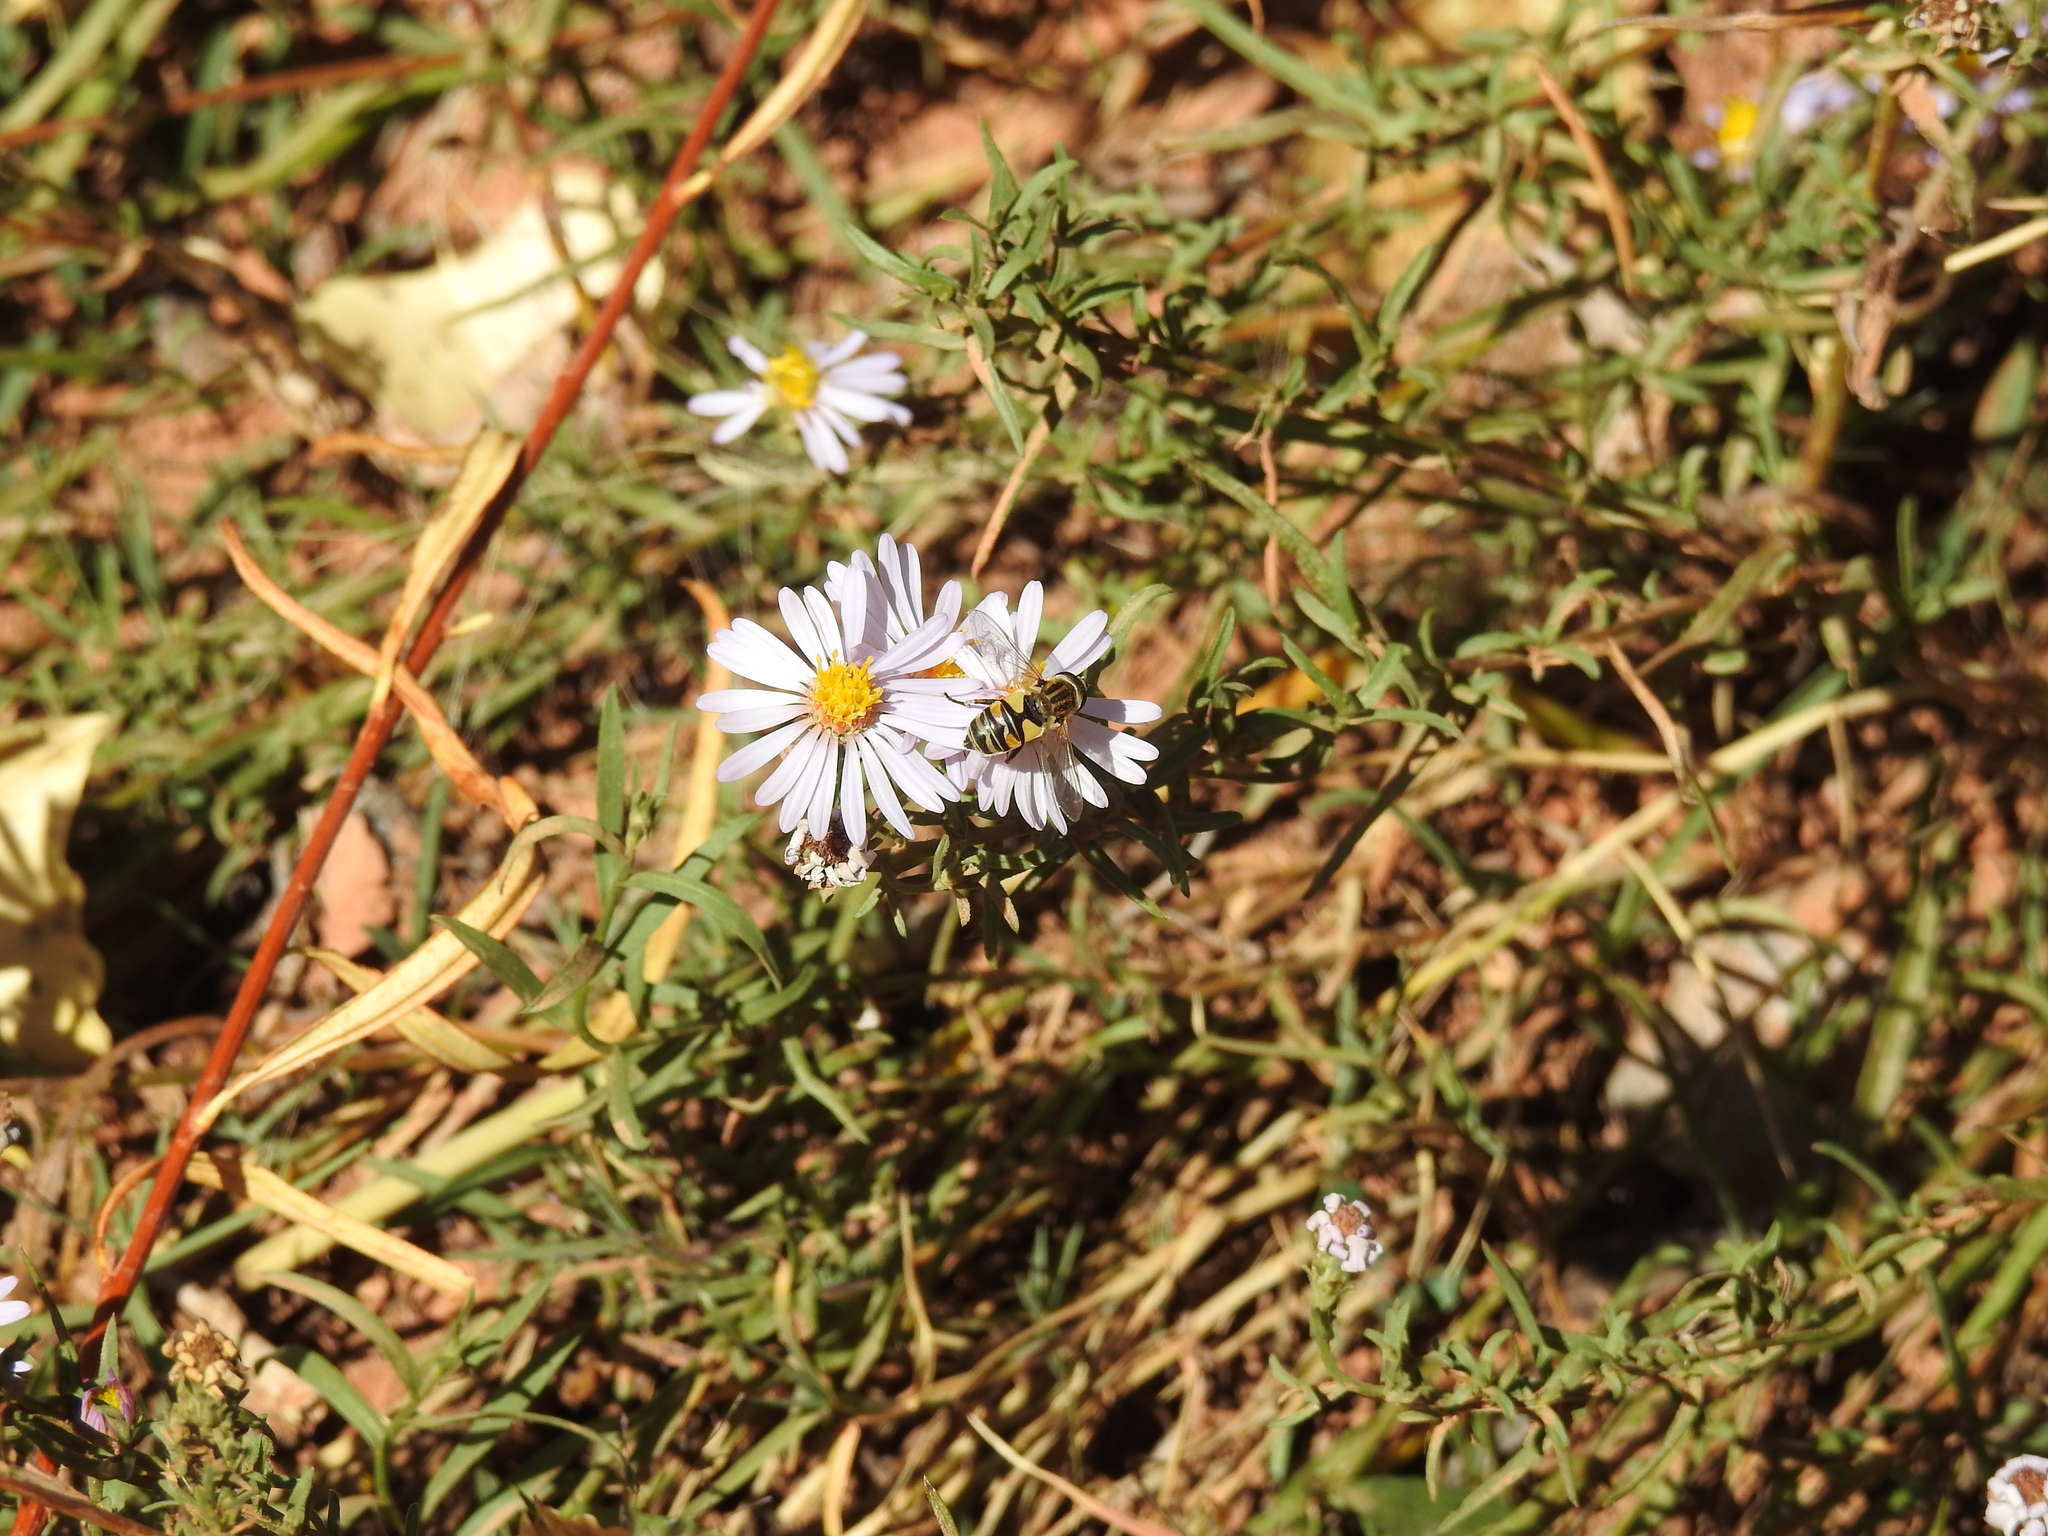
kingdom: Animalia
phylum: Arthropoda
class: Insecta
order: Diptera
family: Syrphidae
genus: Helophilus
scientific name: Helophilus latifrons
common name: Broad-headed marsh fly
